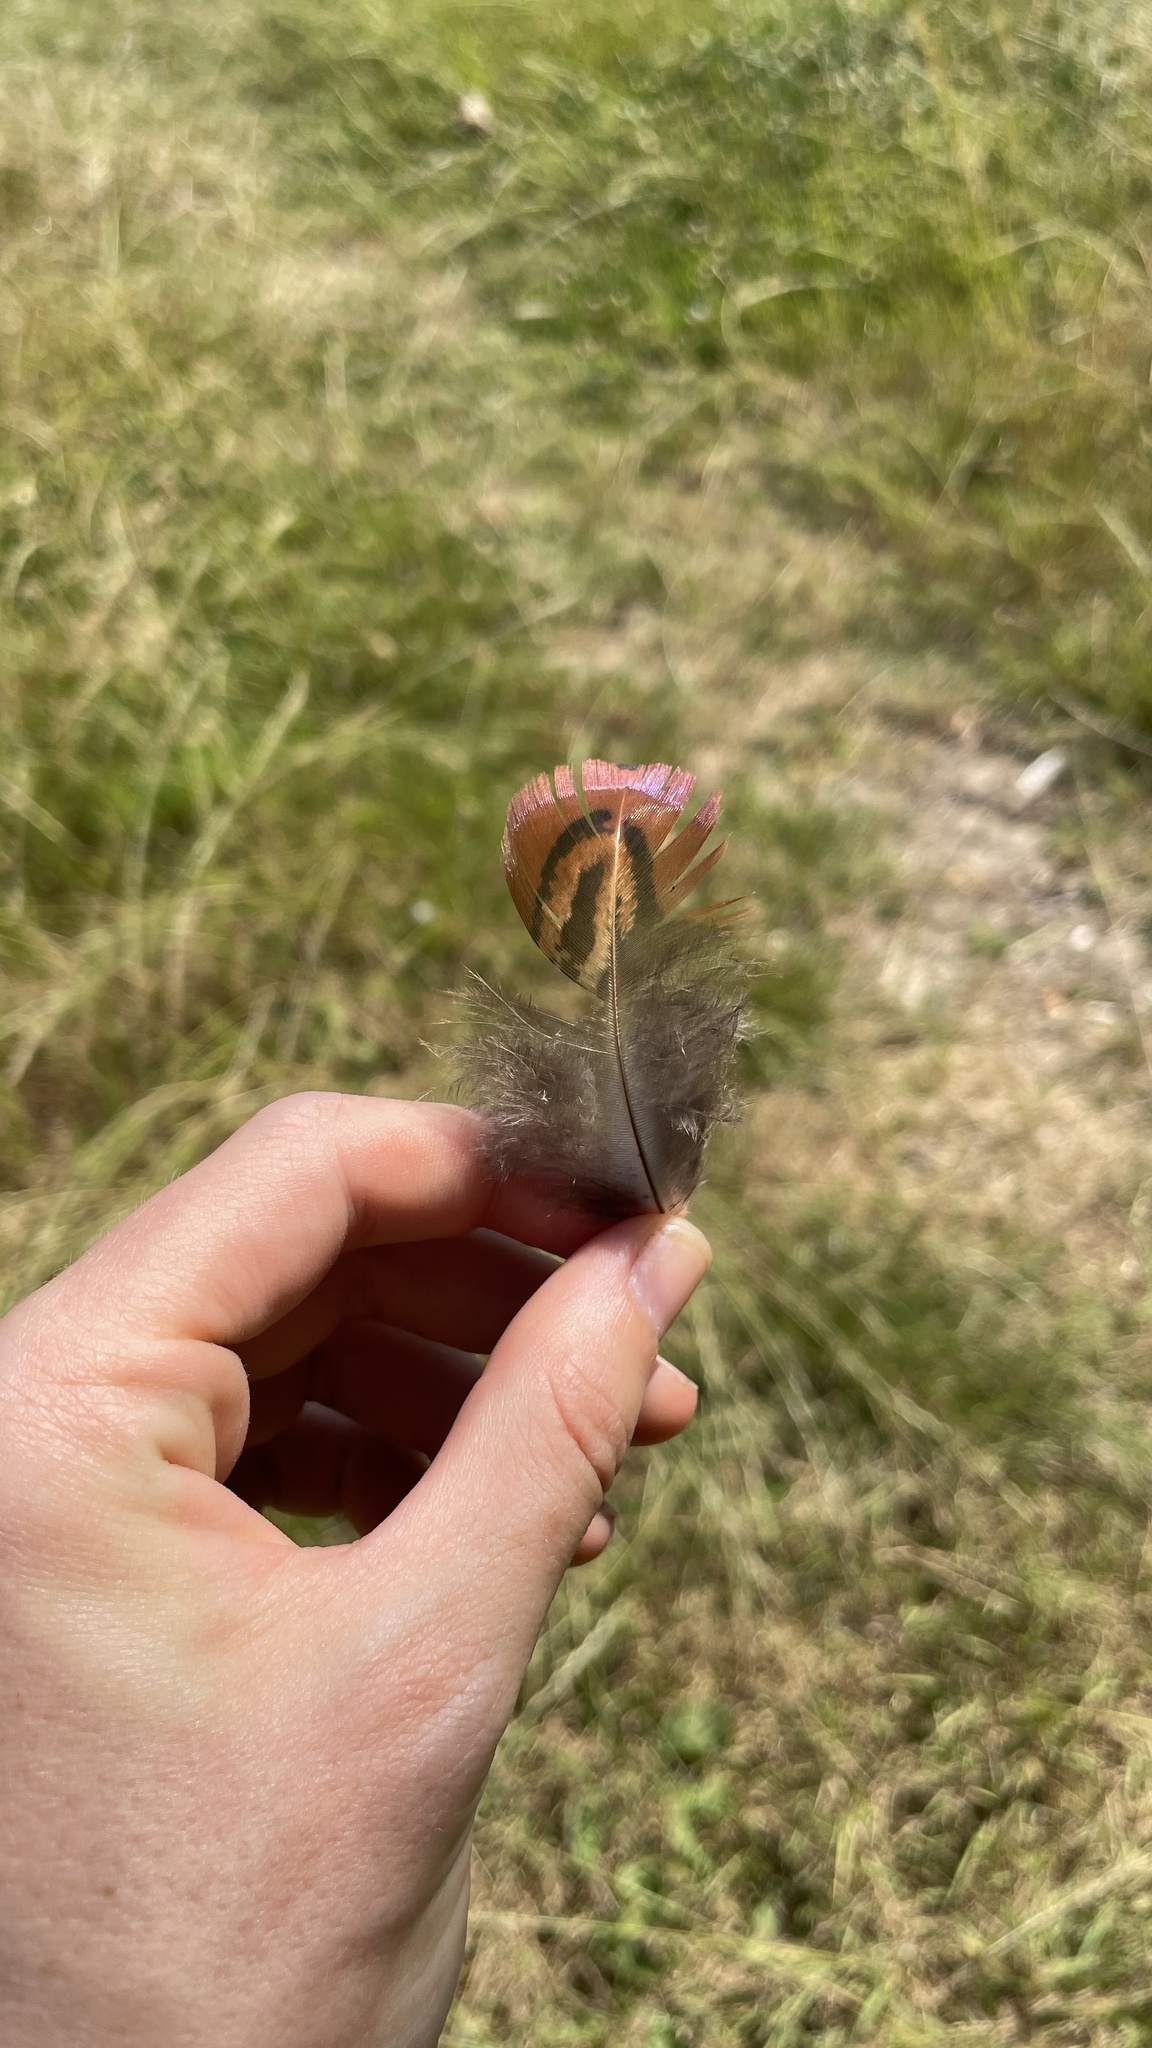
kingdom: Animalia
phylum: Chordata
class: Aves
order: Galliformes
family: Phasianidae
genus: Phasianus
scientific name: Phasianus colchicus
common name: Common pheasant
